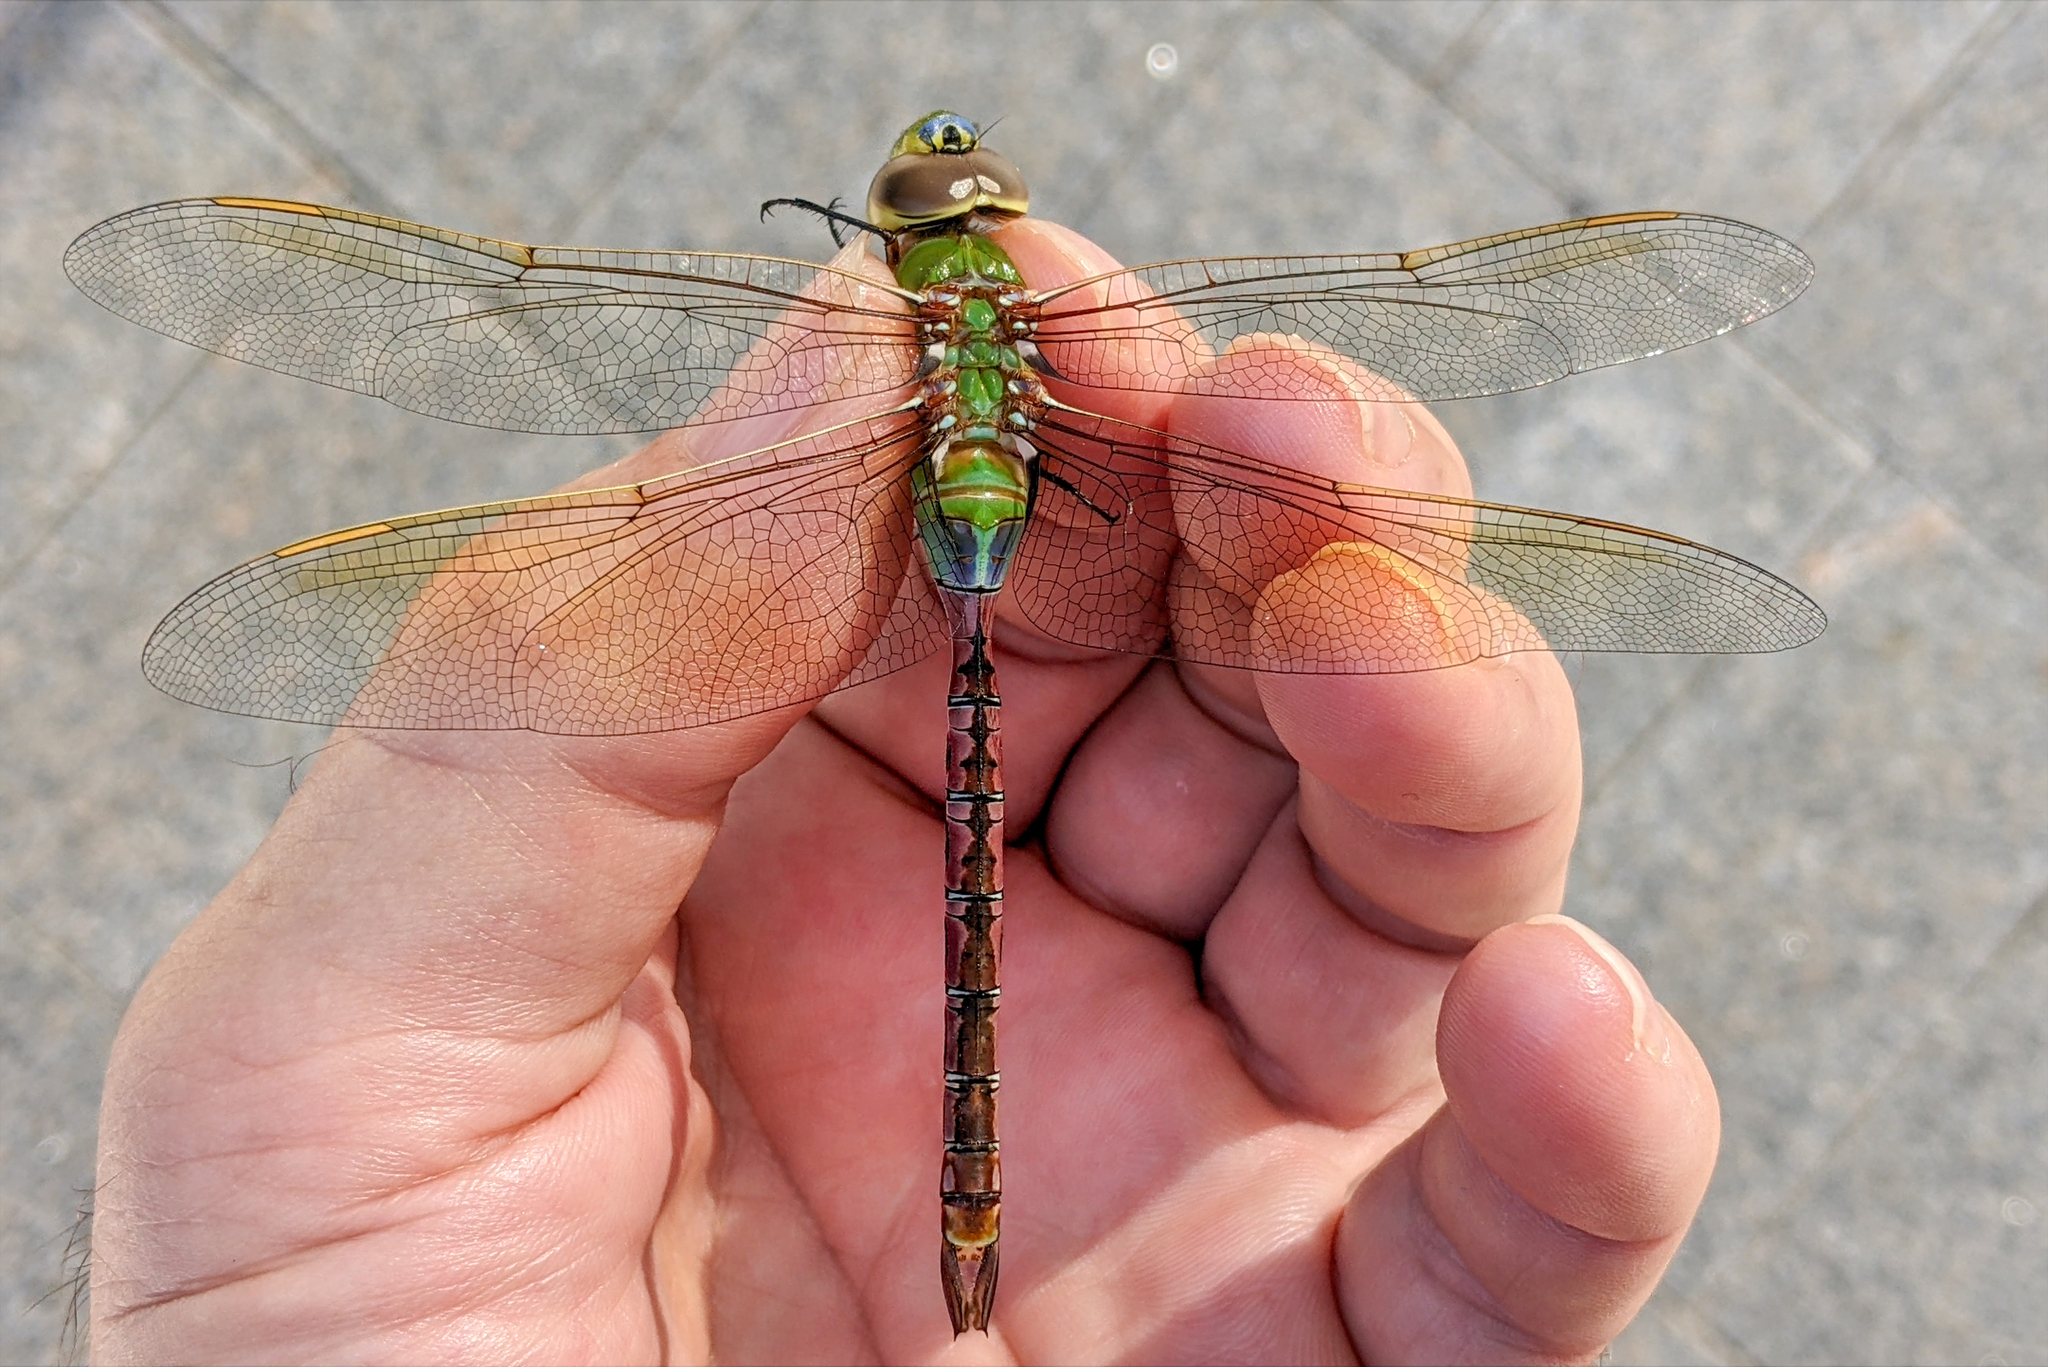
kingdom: Animalia
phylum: Arthropoda
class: Insecta
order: Odonata
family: Aeshnidae
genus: Anax
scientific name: Anax junius
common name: Common green darner
